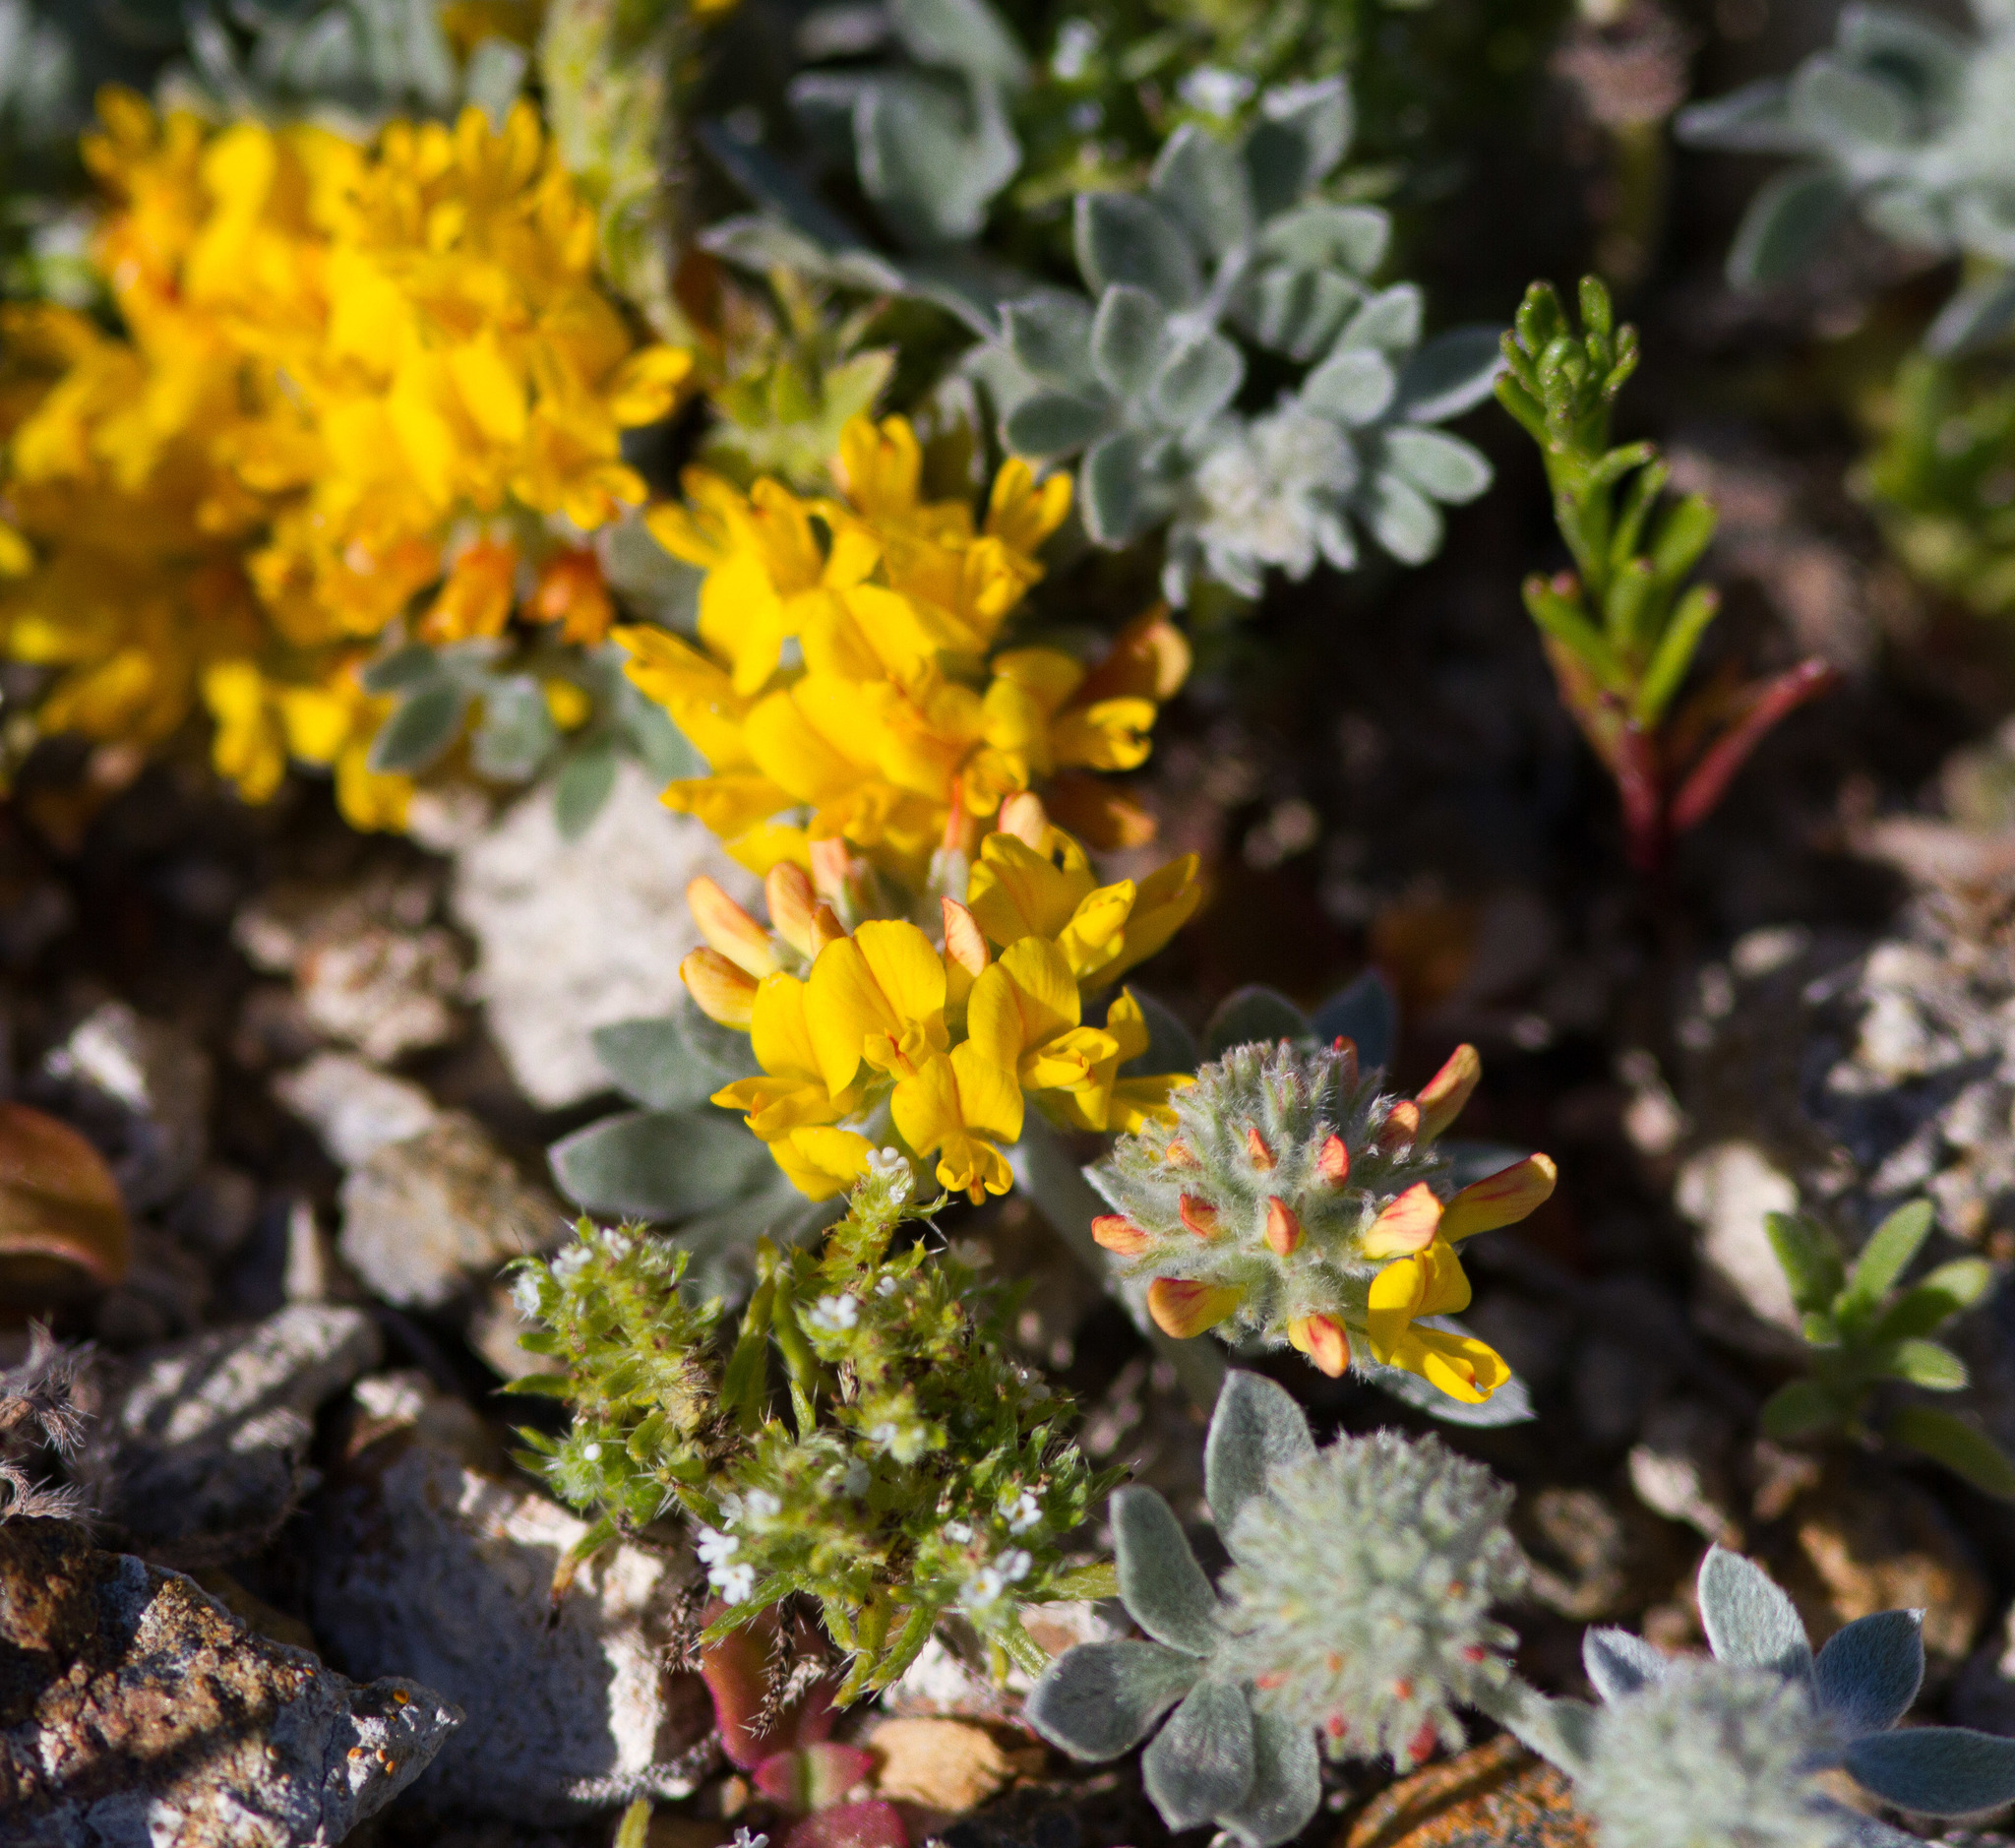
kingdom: Plantae
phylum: Tracheophyta
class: Magnoliopsida
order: Fabales
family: Fabaceae
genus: Acmispon
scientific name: Acmispon argophyllus
